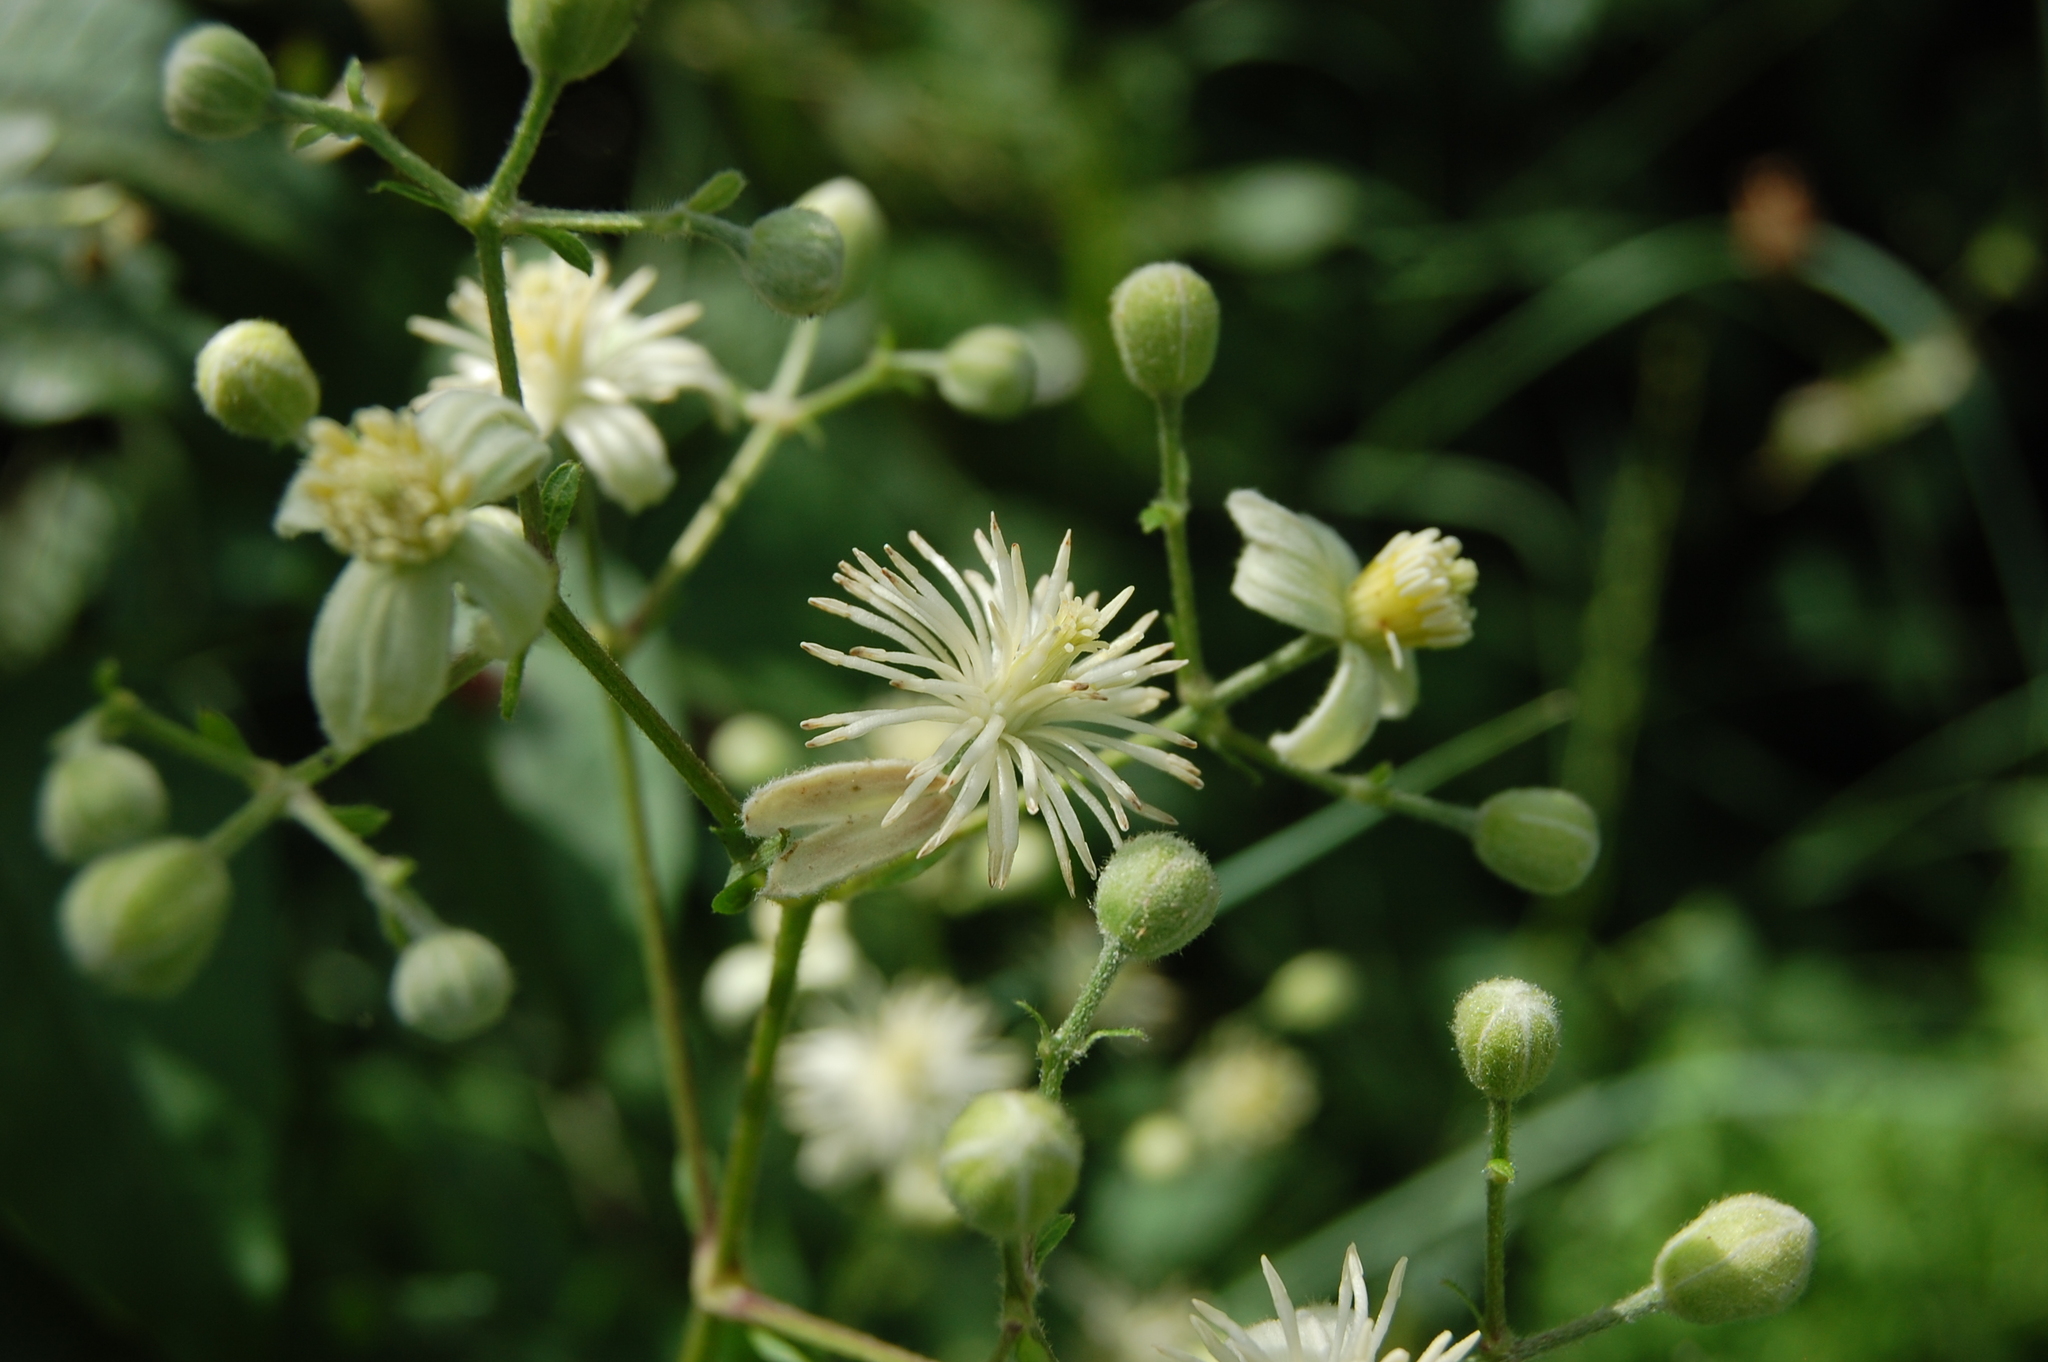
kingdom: Plantae
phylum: Tracheophyta
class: Magnoliopsida
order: Ranunculales
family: Ranunculaceae
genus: Clematis
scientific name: Clematis vitalba
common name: Evergreen clematis
